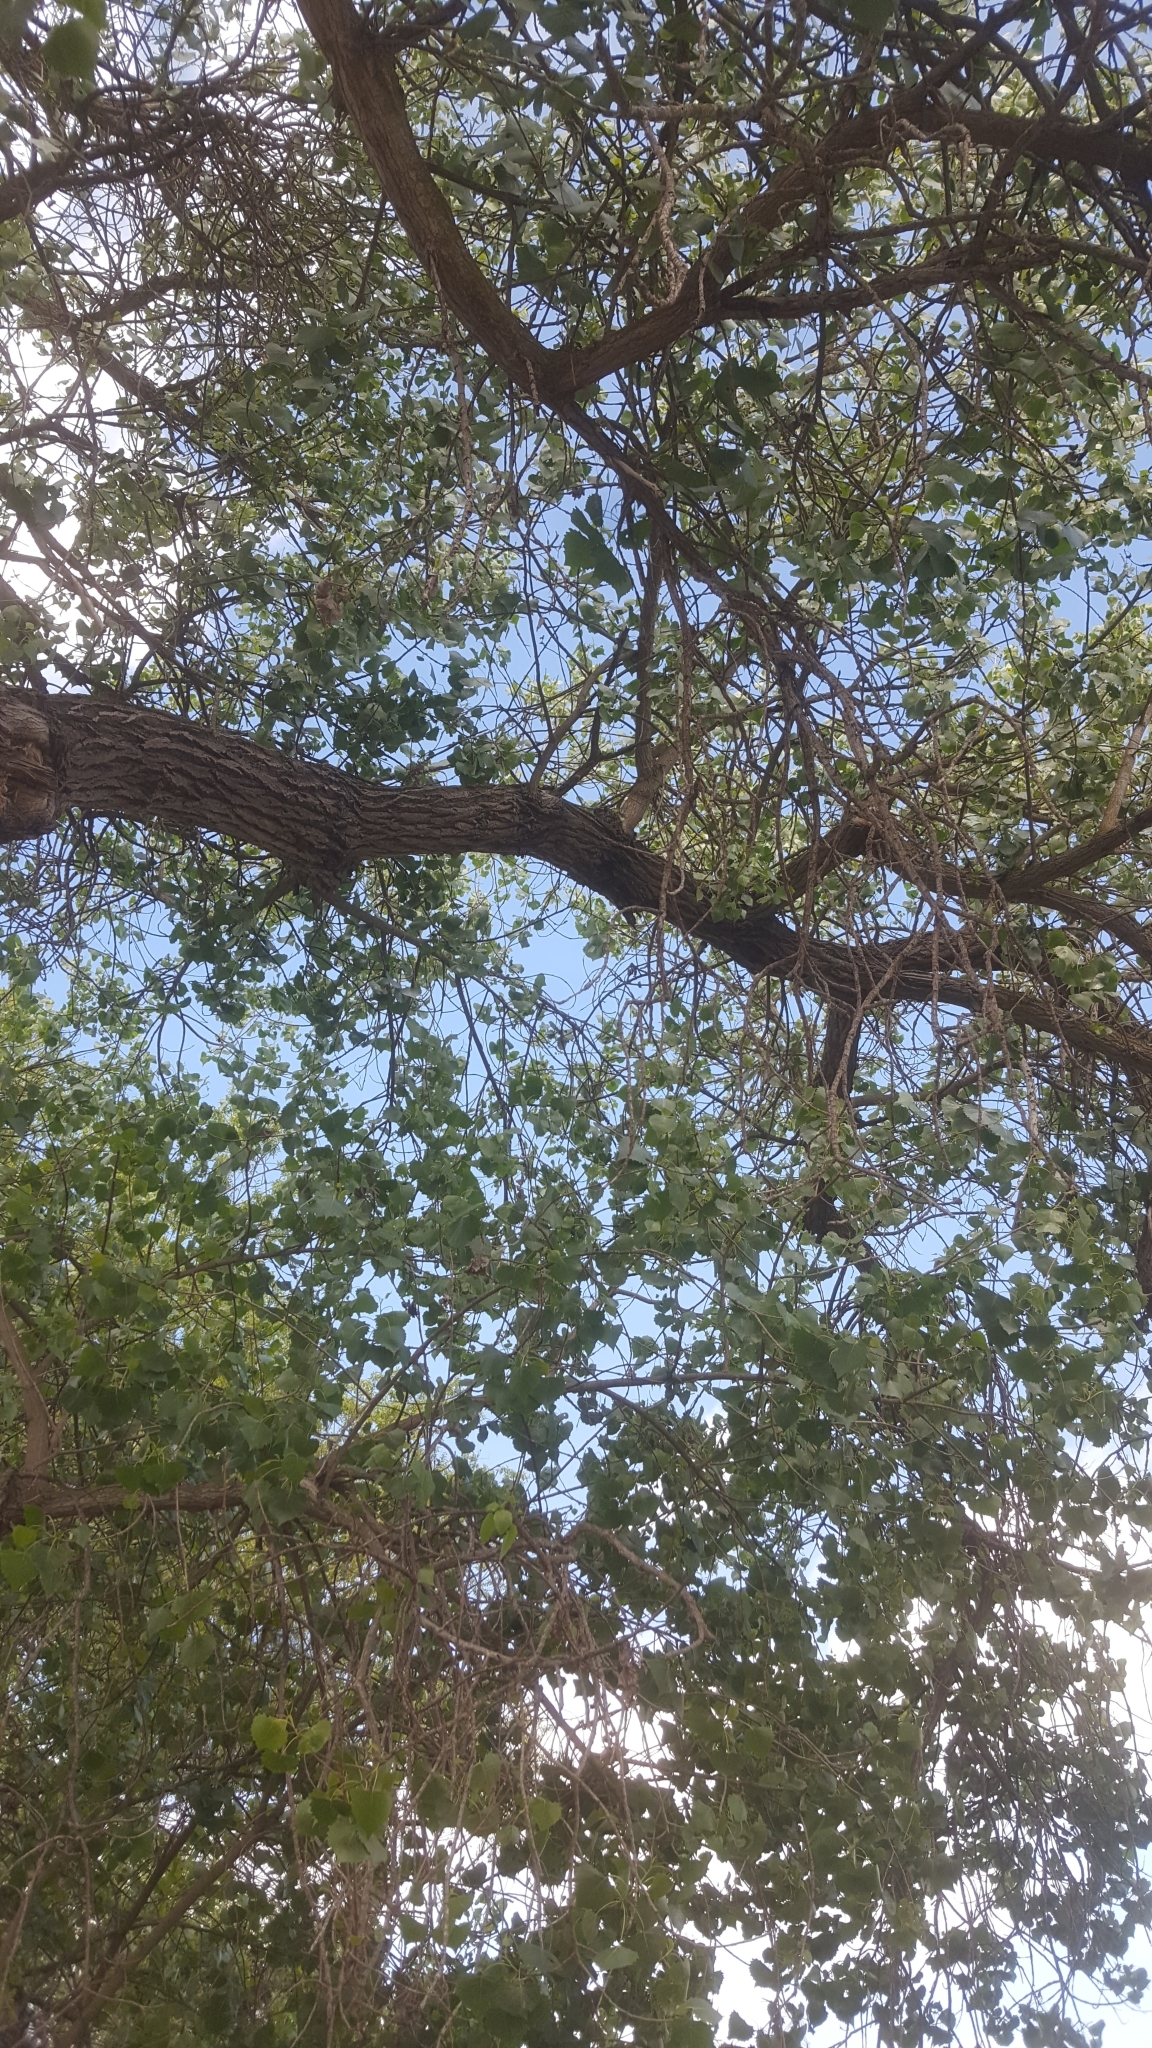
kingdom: Plantae
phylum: Tracheophyta
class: Magnoliopsida
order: Malpighiales
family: Salicaceae
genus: Populus
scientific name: Populus fremontii
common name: Fremont's cottonwood
